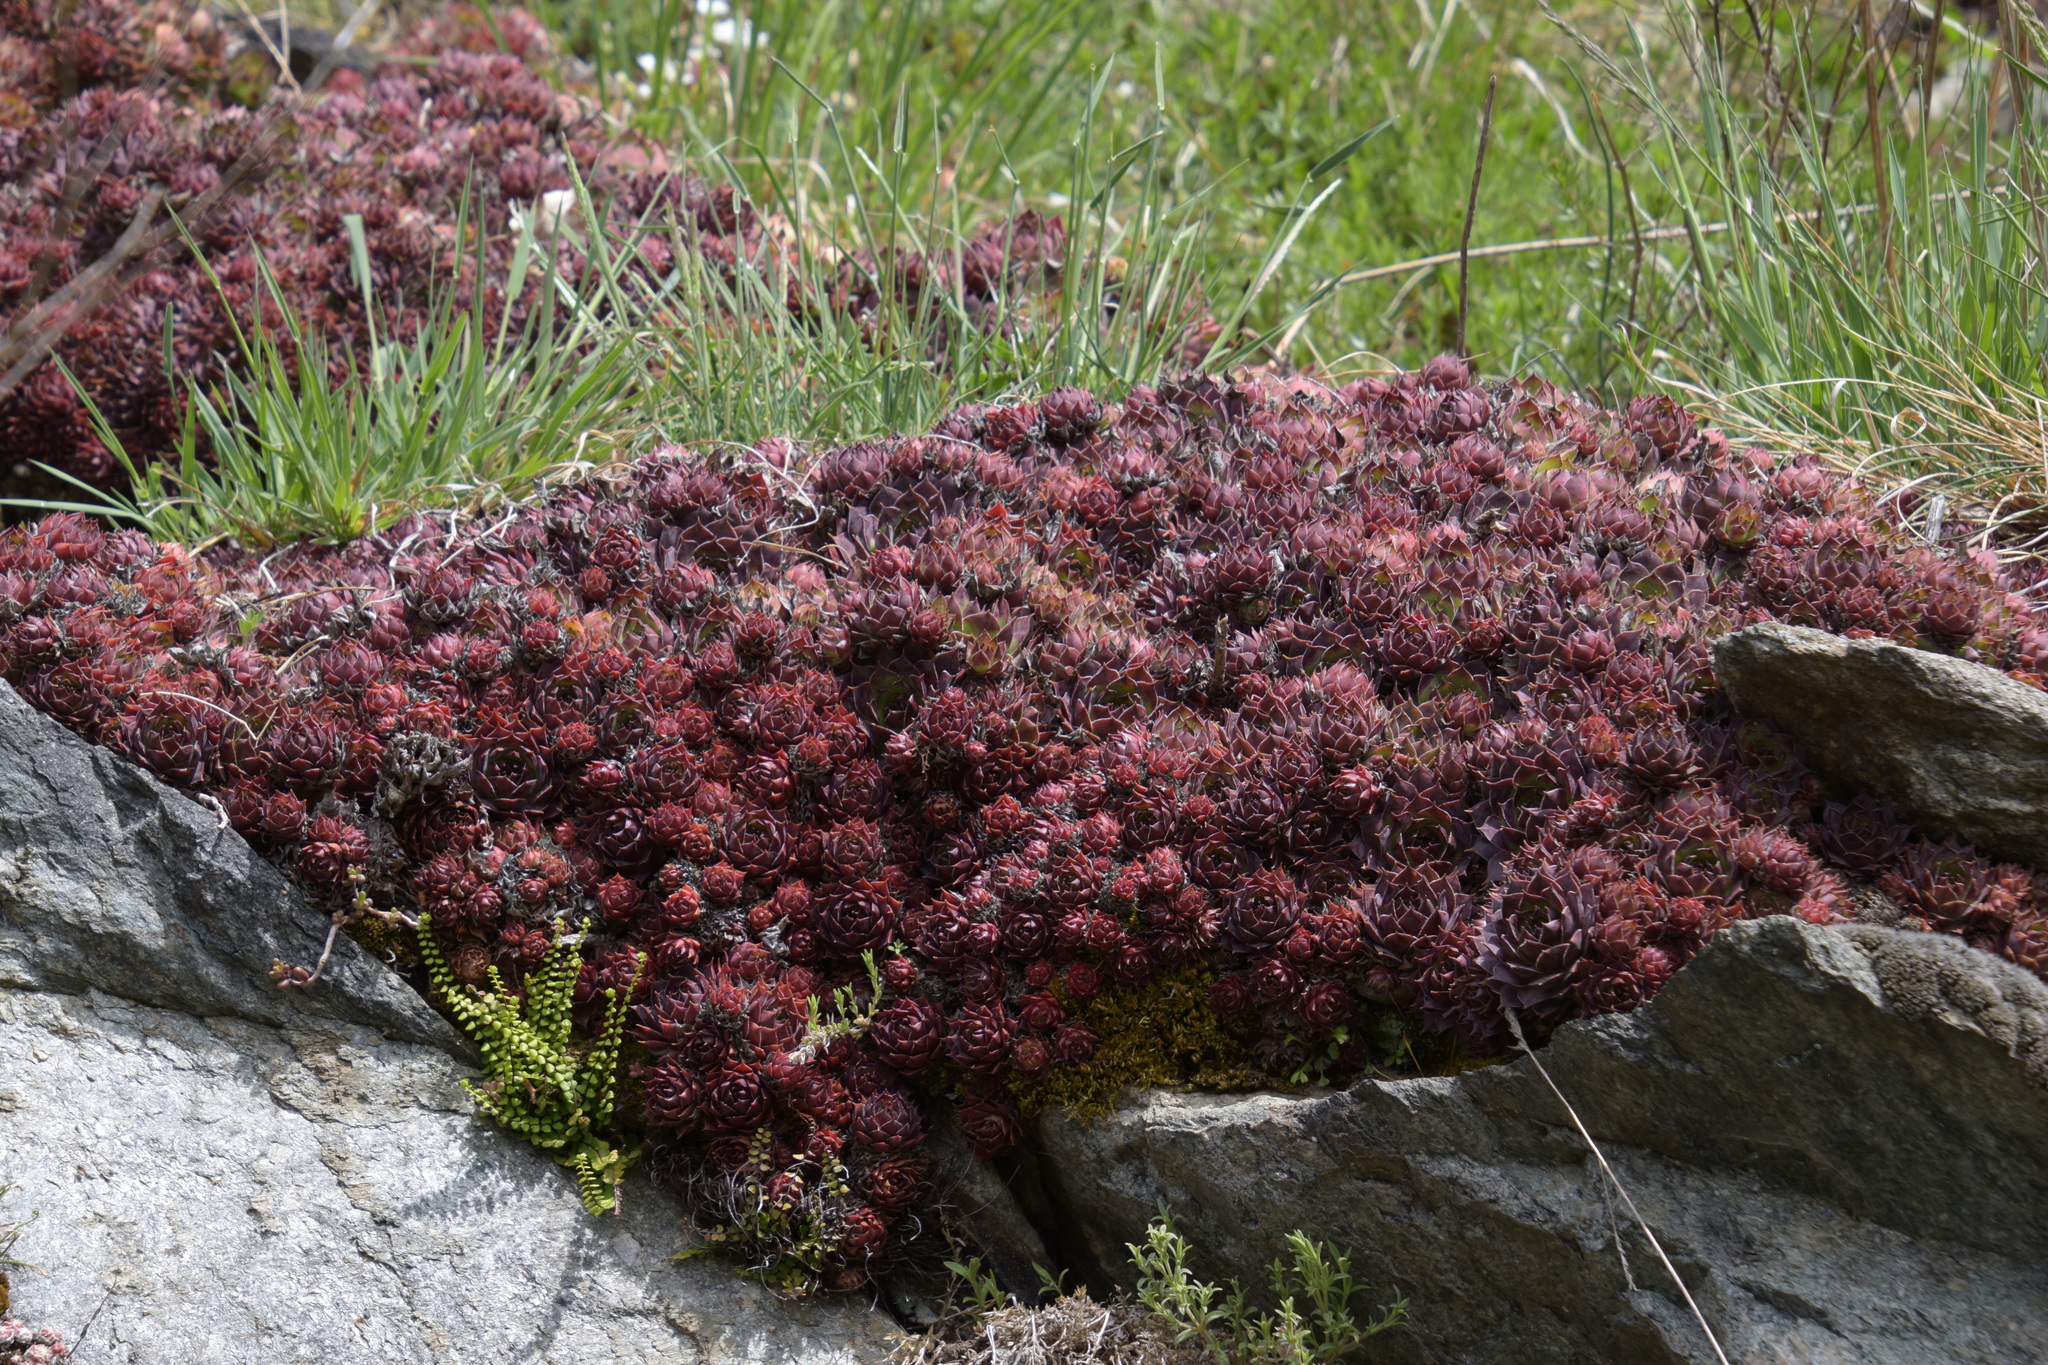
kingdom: Plantae
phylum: Tracheophyta
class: Magnoliopsida
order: Saxifragales
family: Crassulaceae
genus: Sempervivum
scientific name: Sempervivum tectorum
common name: House-leek
